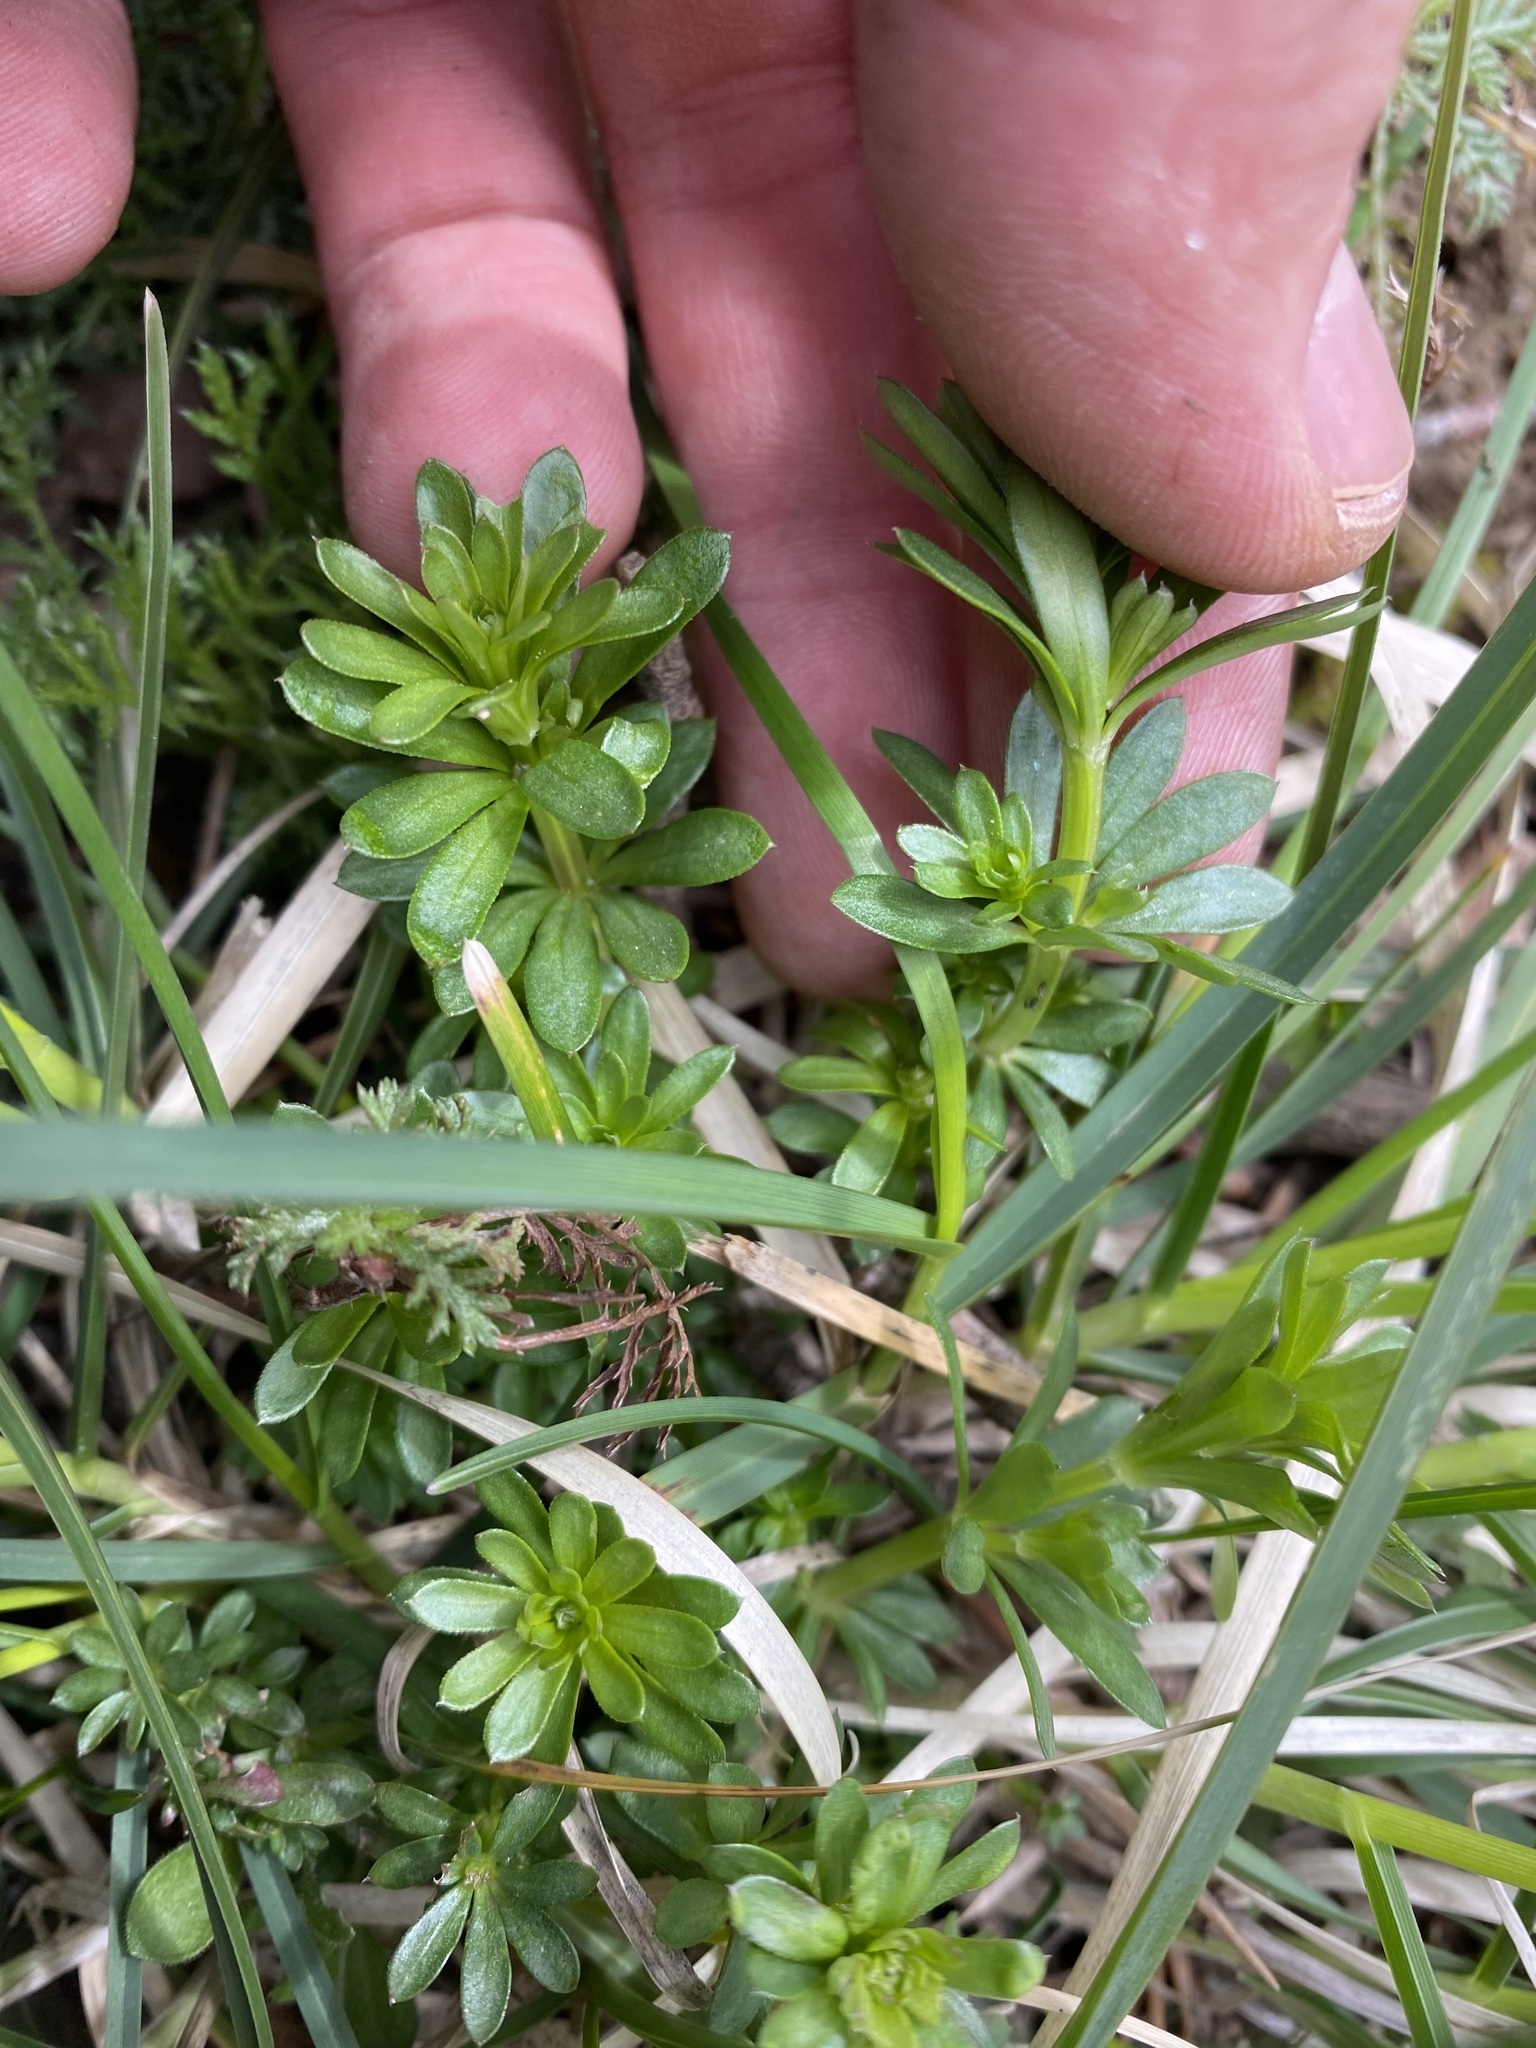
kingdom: Plantae
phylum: Tracheophyta
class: Magnoliopsida
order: Gentianales
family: Rubiaceae
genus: Galium
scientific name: Galium mollugo
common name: Hedge bedstraw
